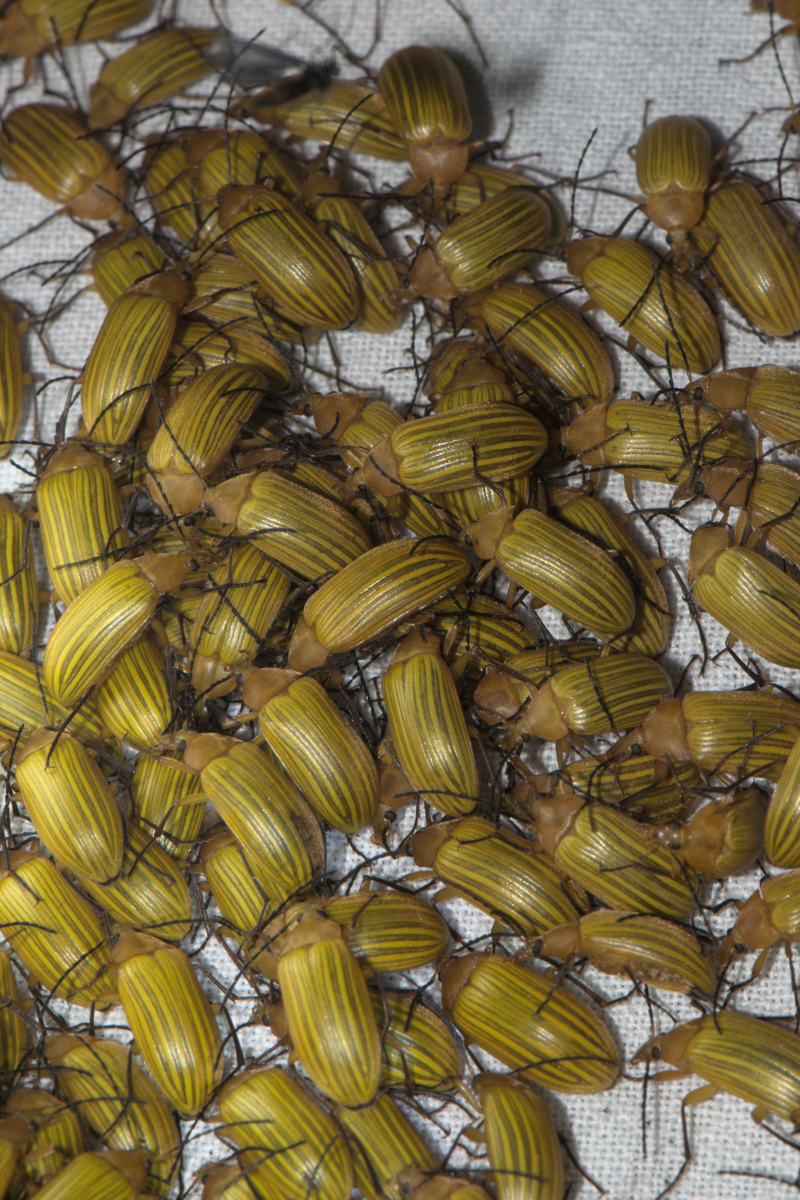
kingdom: Animalia
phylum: Arthropoda
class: Insecta
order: Coleoptera
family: Tenebrionidae
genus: Cistelomorpha
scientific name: Cistelomorpha
